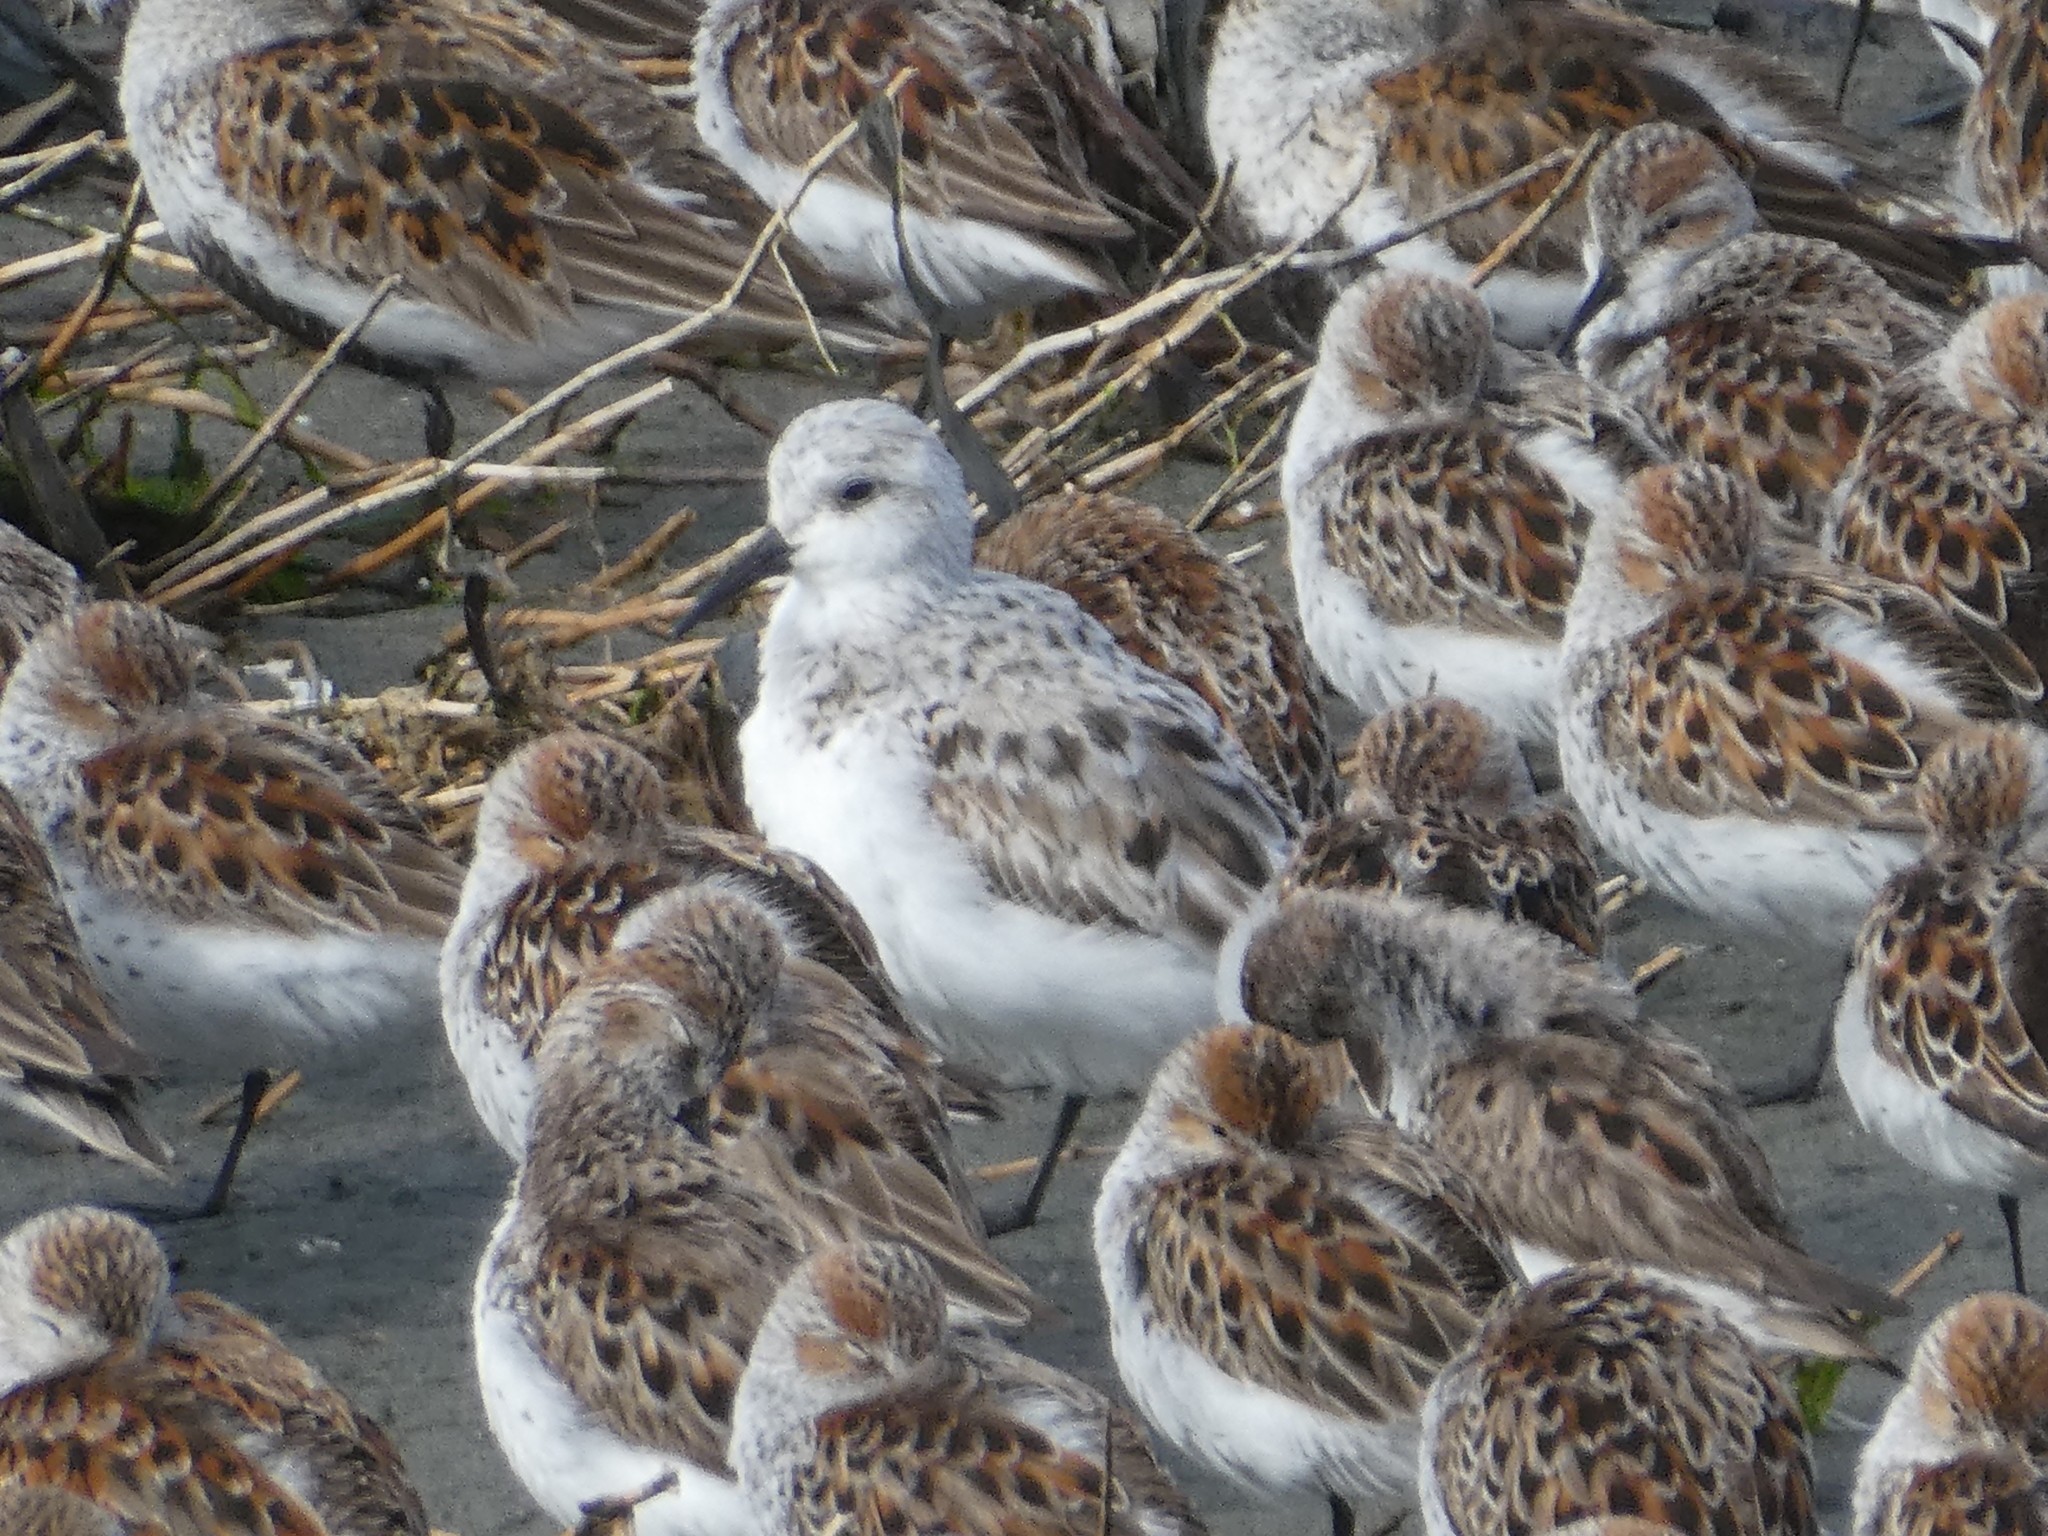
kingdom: Animalia
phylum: Chordata
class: Aves
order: Charadriiformes
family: Scolopacidae
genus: Calidris
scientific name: Calidris alba
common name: Sanderling
